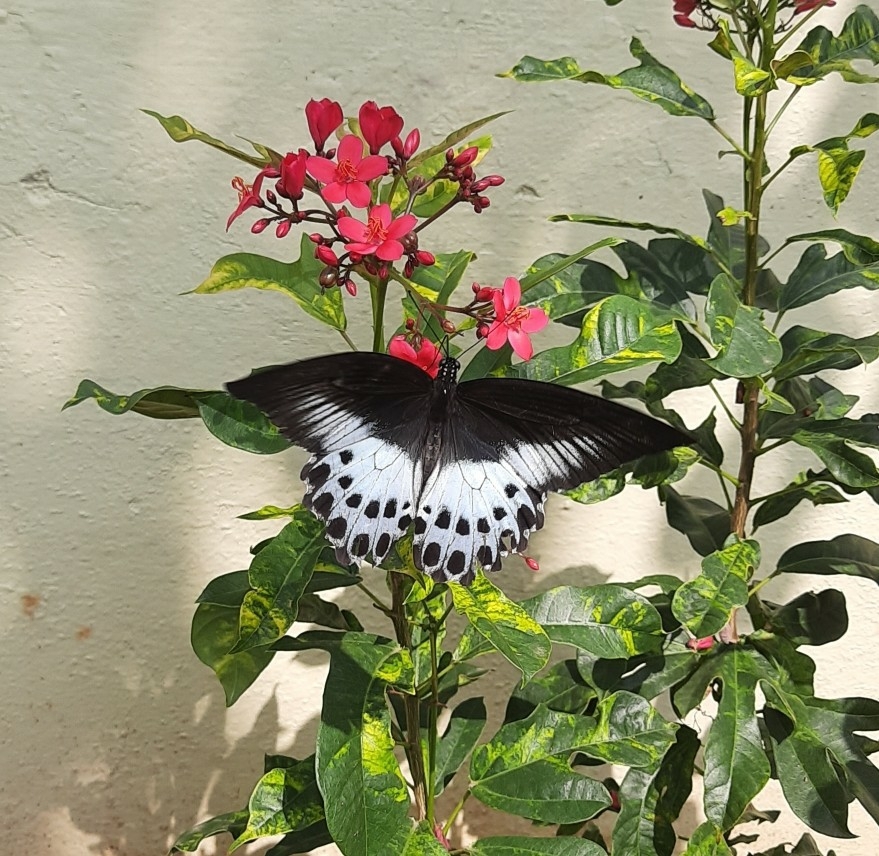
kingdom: Animalia
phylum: Arthropoda
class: Insecta
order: Lepidoptera
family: Papilionidae
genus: Papilio
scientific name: Papilio memnon
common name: Great mormon
